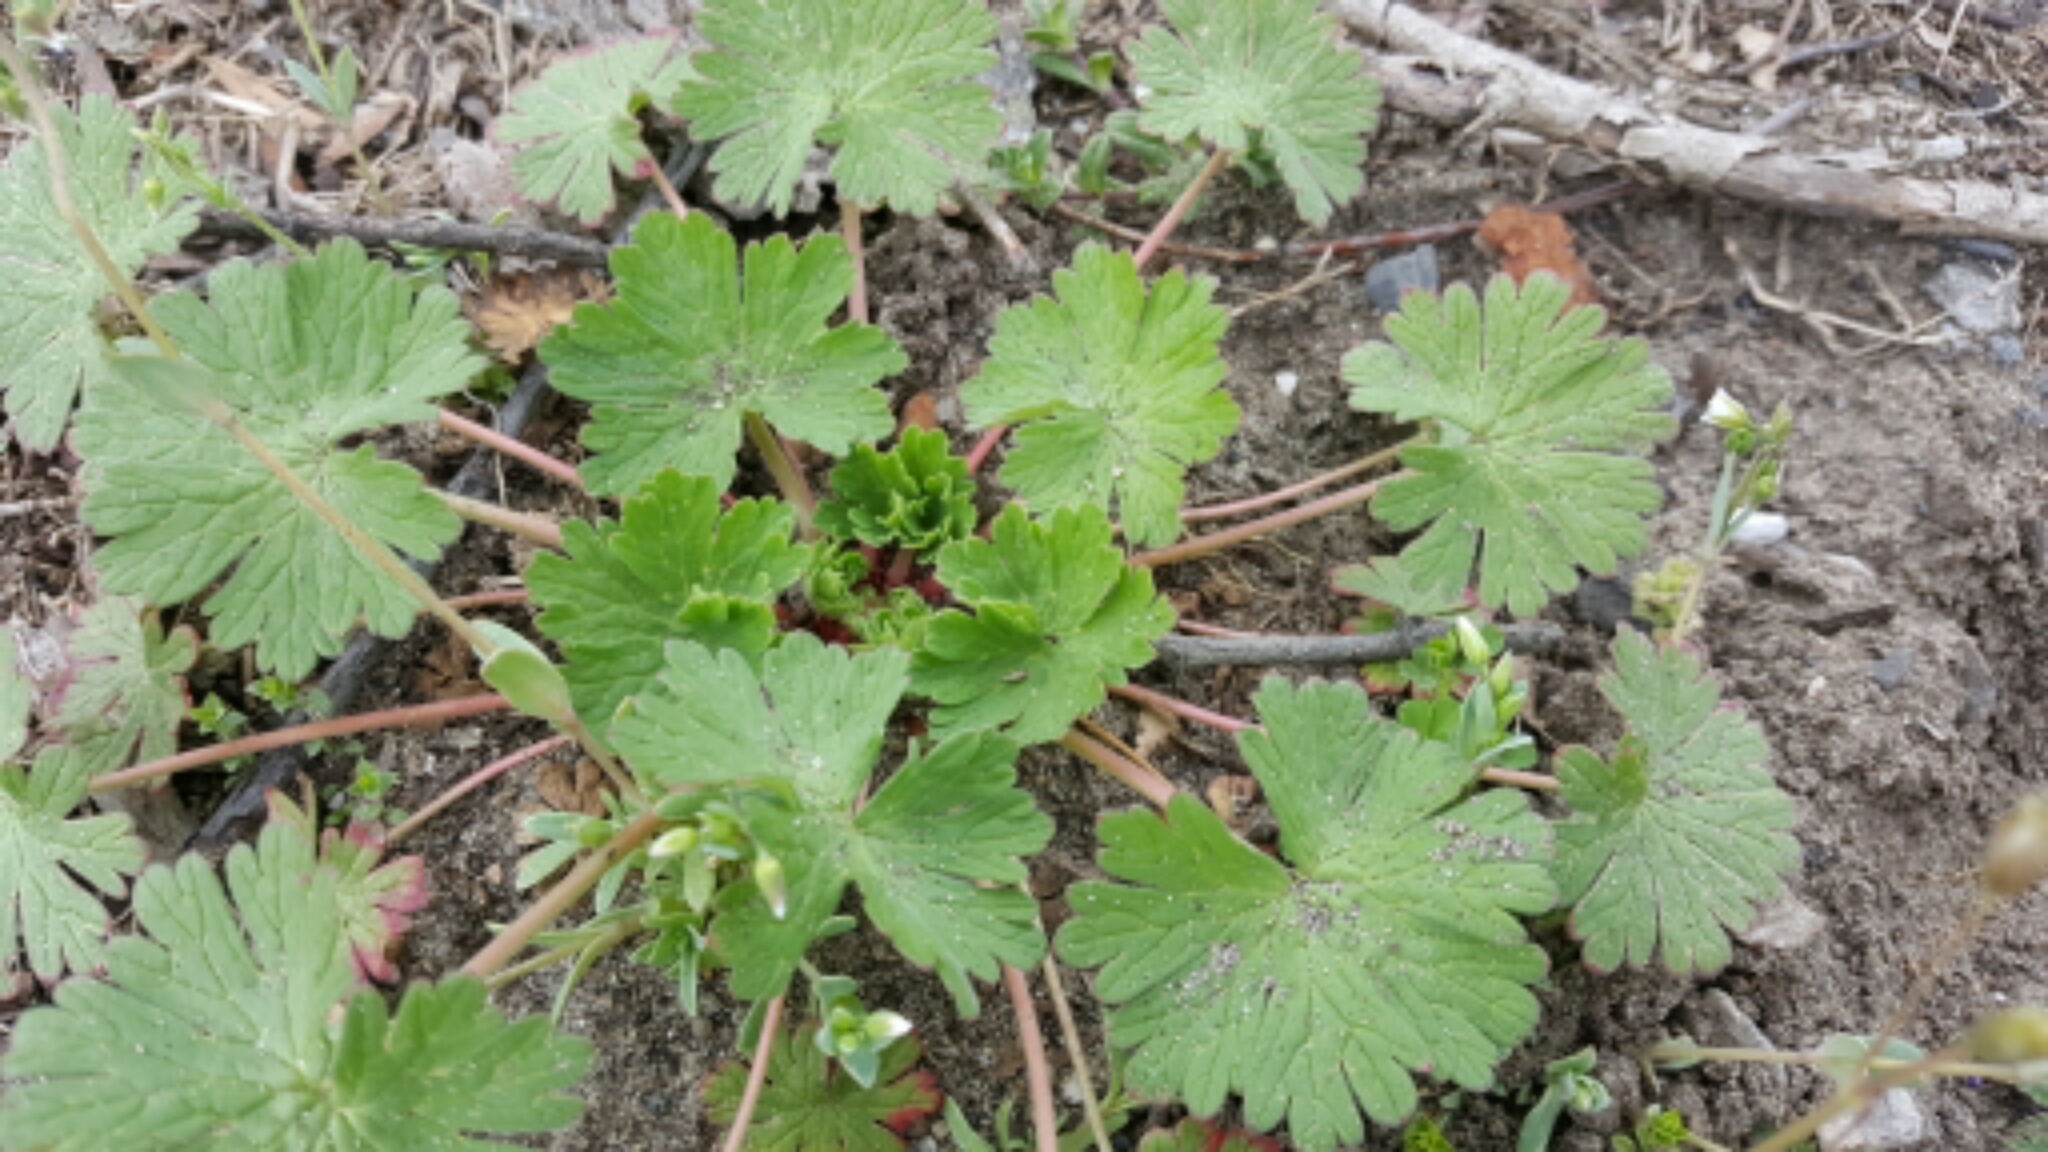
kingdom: Plantae
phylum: Tracheophyta
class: Magnoliopsida
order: Geraniales
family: Geraniaceae
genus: Geranium
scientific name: Geranium molle
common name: Dove's-foot crane's-bill
